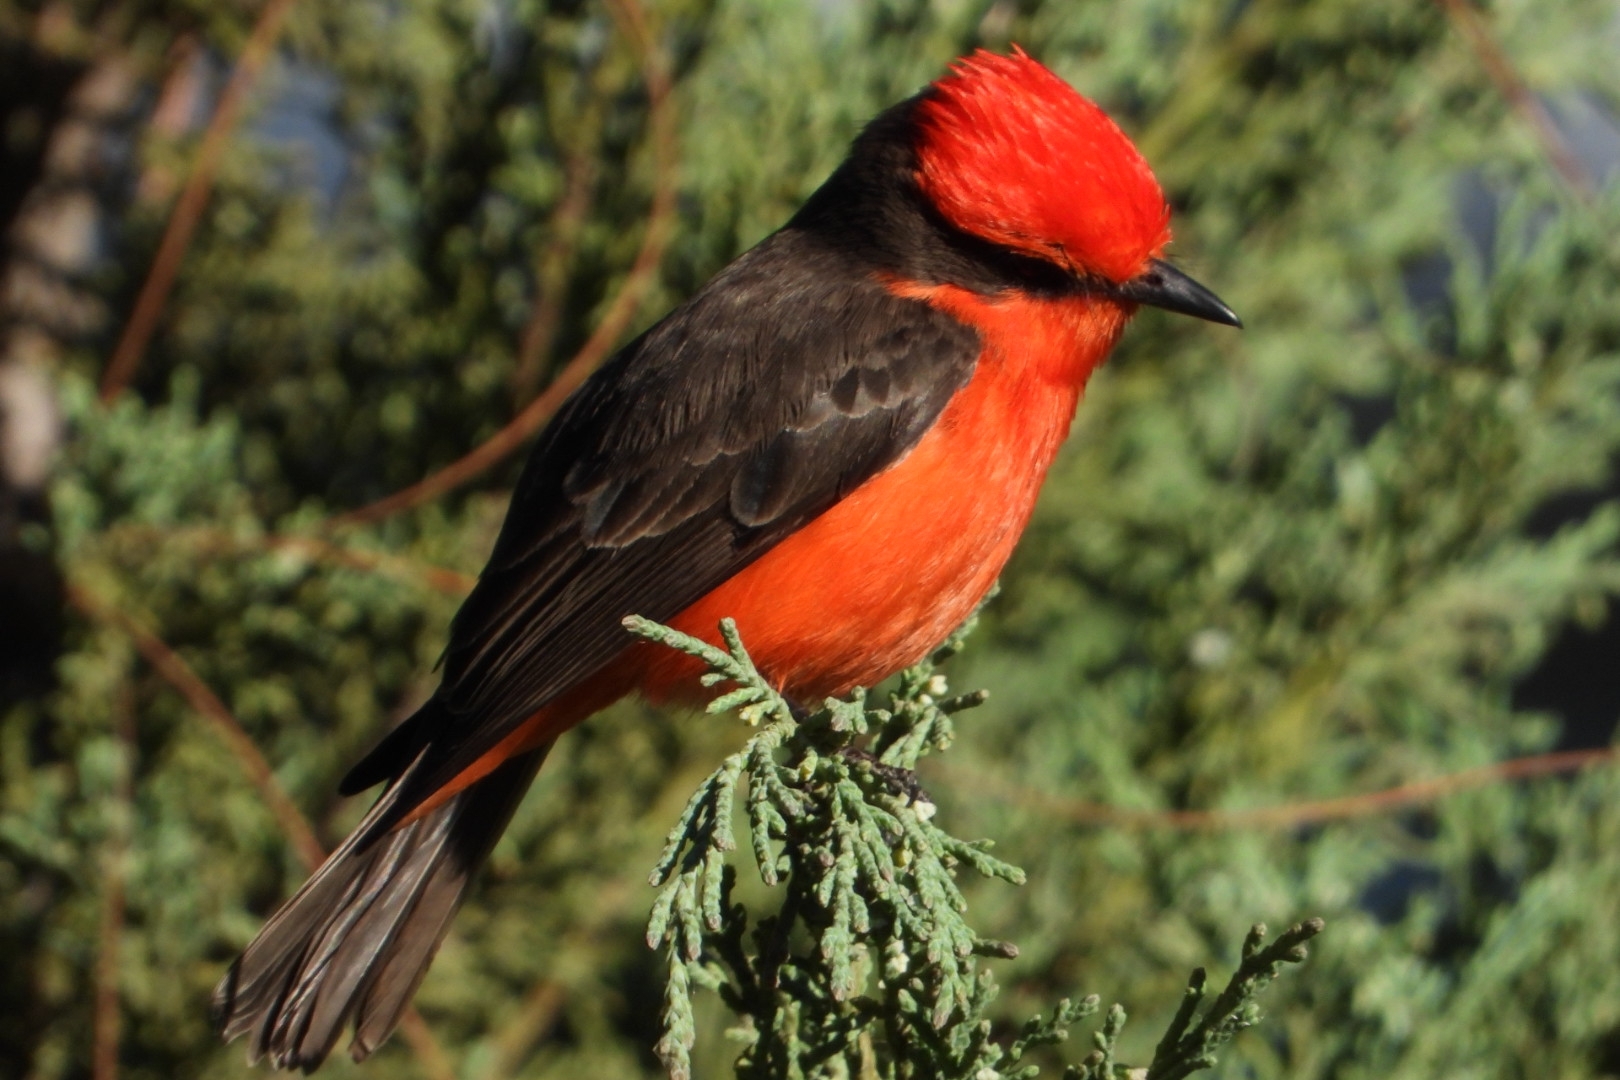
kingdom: Animalia
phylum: Chordata
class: Aves
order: Passeriformes
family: Tyrannidae
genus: Pyrocephalus
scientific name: Pyrocephalus rubinus
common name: Vermilion flycatcher
